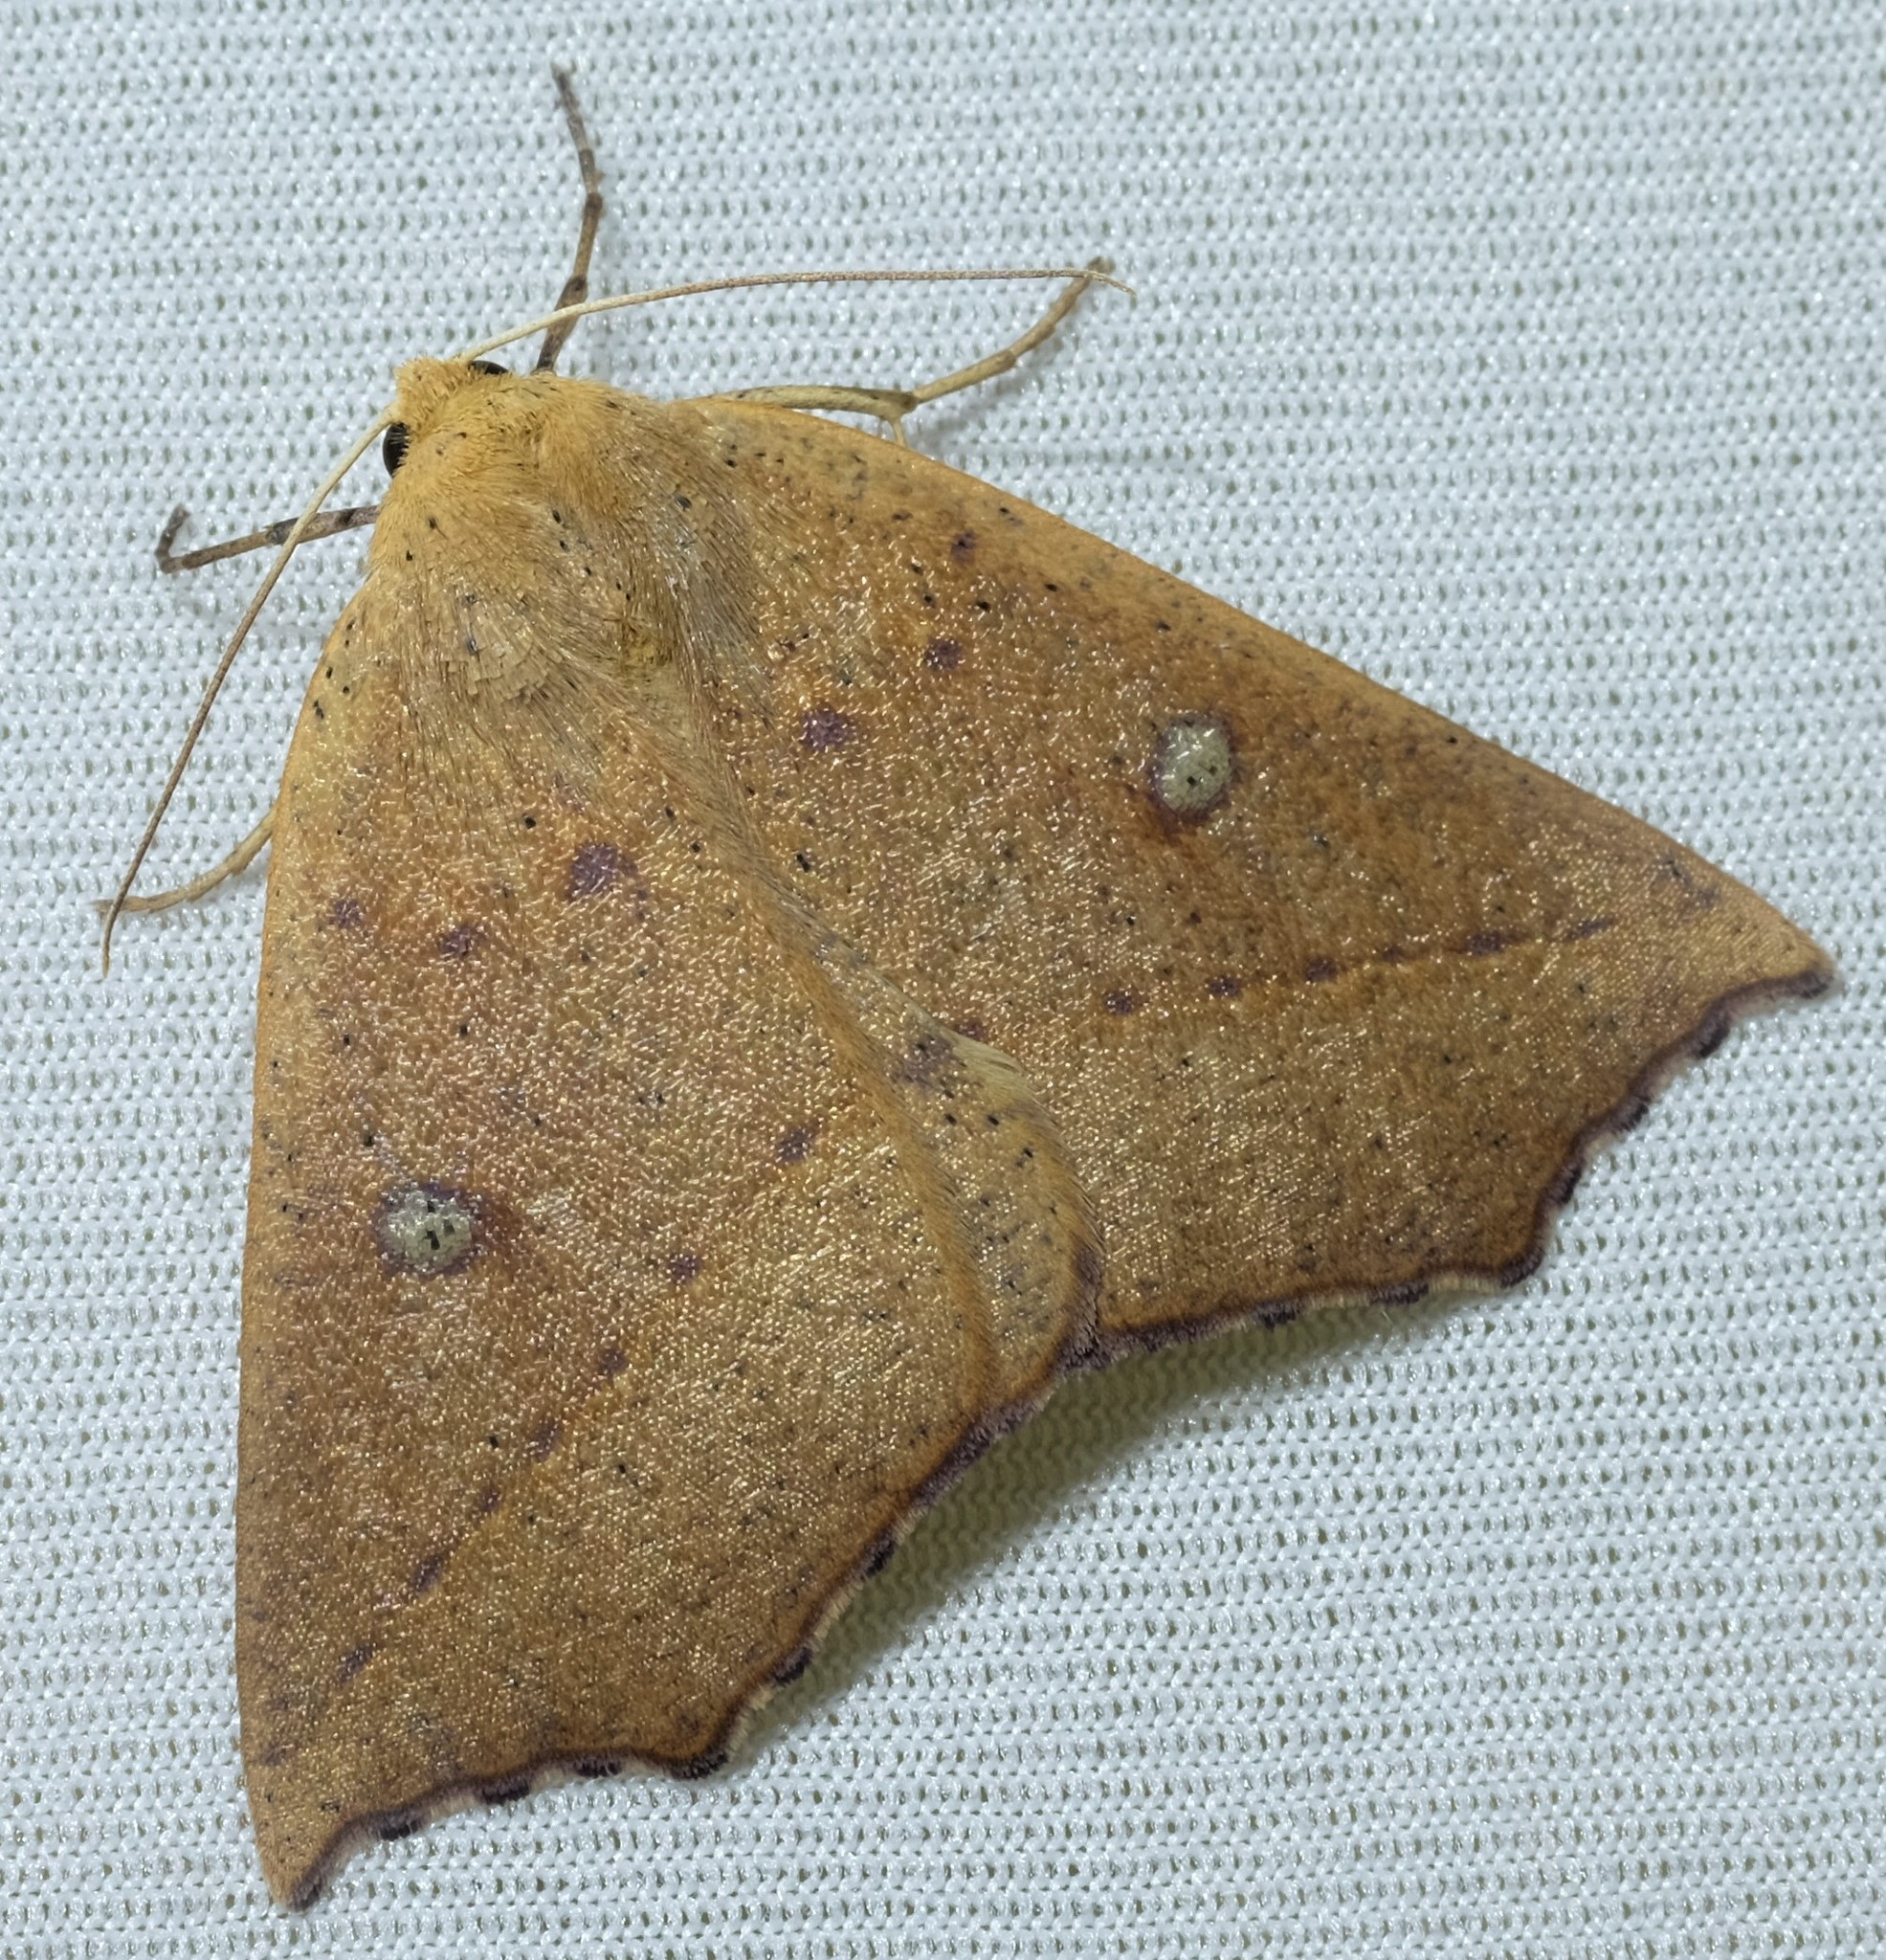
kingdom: Animalia
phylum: Arthropoda
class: Insecta
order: Lepidoptera
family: Geometridae
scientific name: Geometridae
